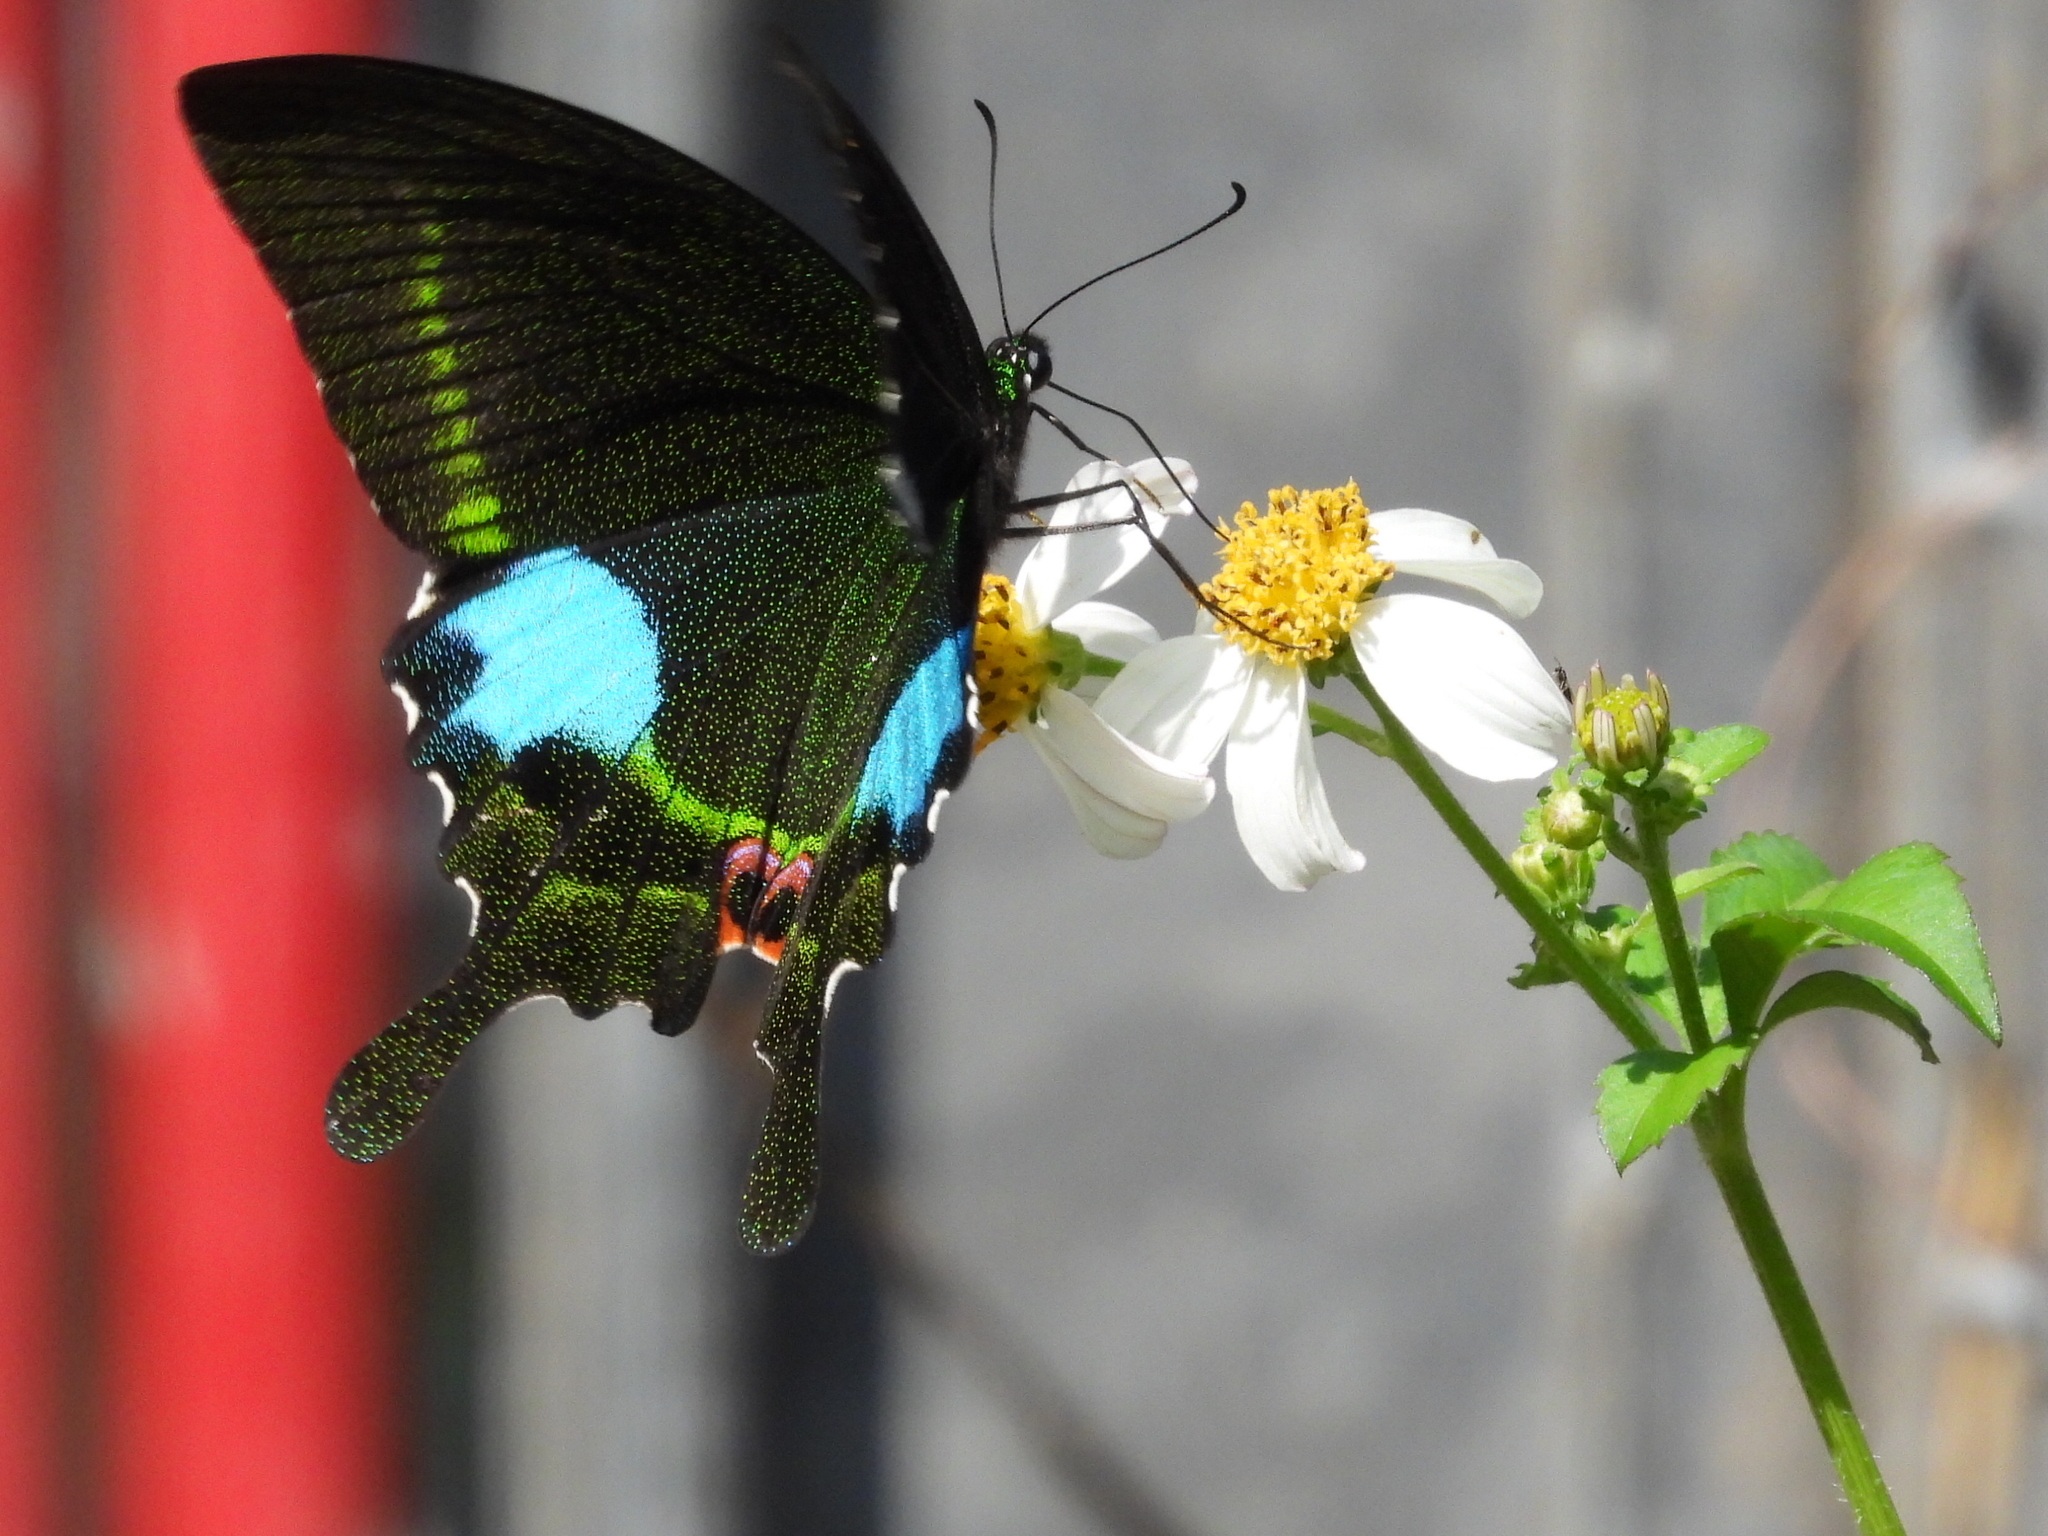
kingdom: Animalia
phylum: Arthropoda
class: Insecta
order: Lepidoptera
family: Papilionidae
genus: Papilio
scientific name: Papilio paris
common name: Paris peacock
